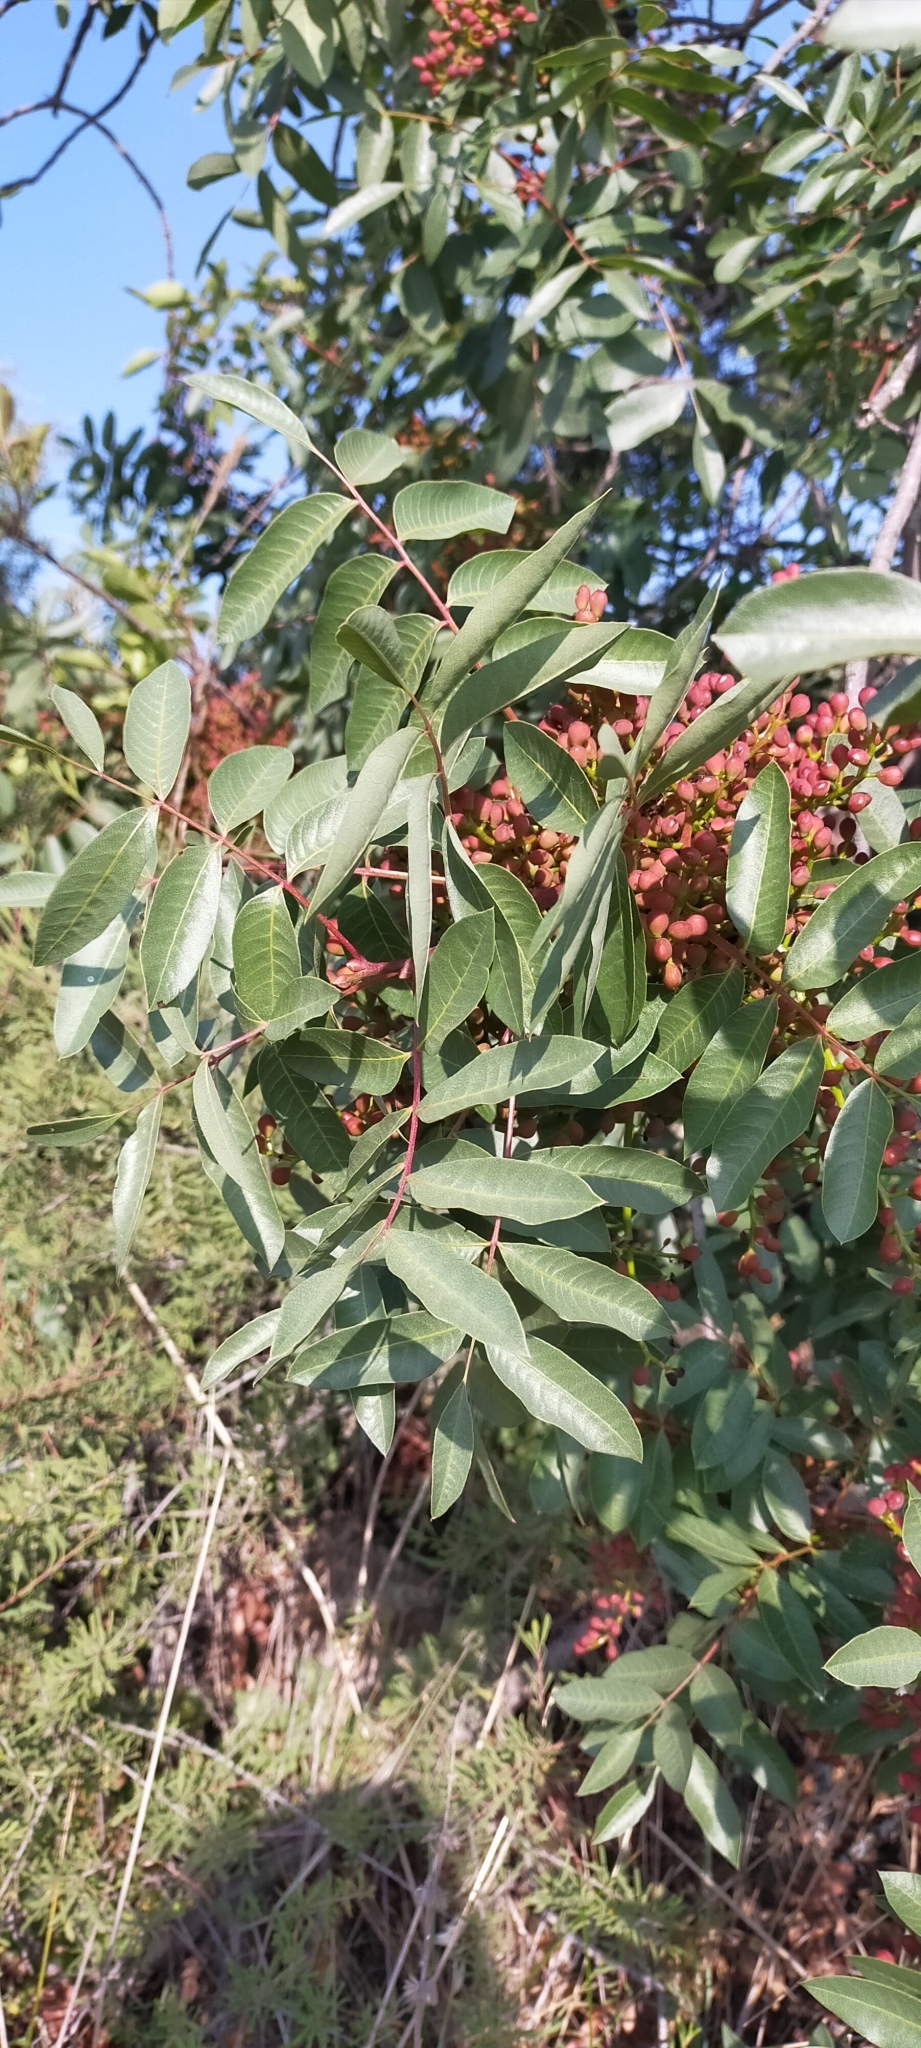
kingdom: Plantae
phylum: Tracheophyta
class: Magnoliopsida
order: Sapindales
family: Anacardiaceae
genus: Pistacia
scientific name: Pistacia terebinthus
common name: Terebinth
